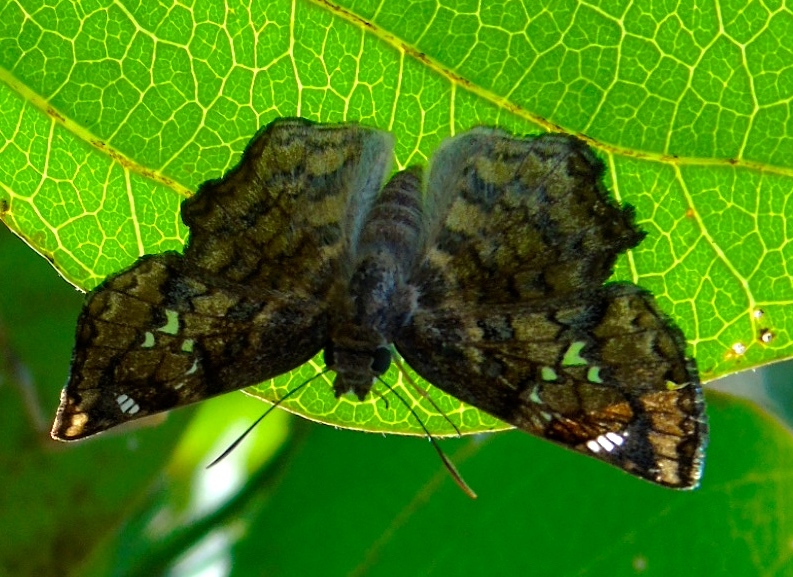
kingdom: Animalia
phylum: Arthropoda
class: Insecta
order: Lepidoptera
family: Hesperiidae
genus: Antigonus
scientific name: Antigonus erosus
